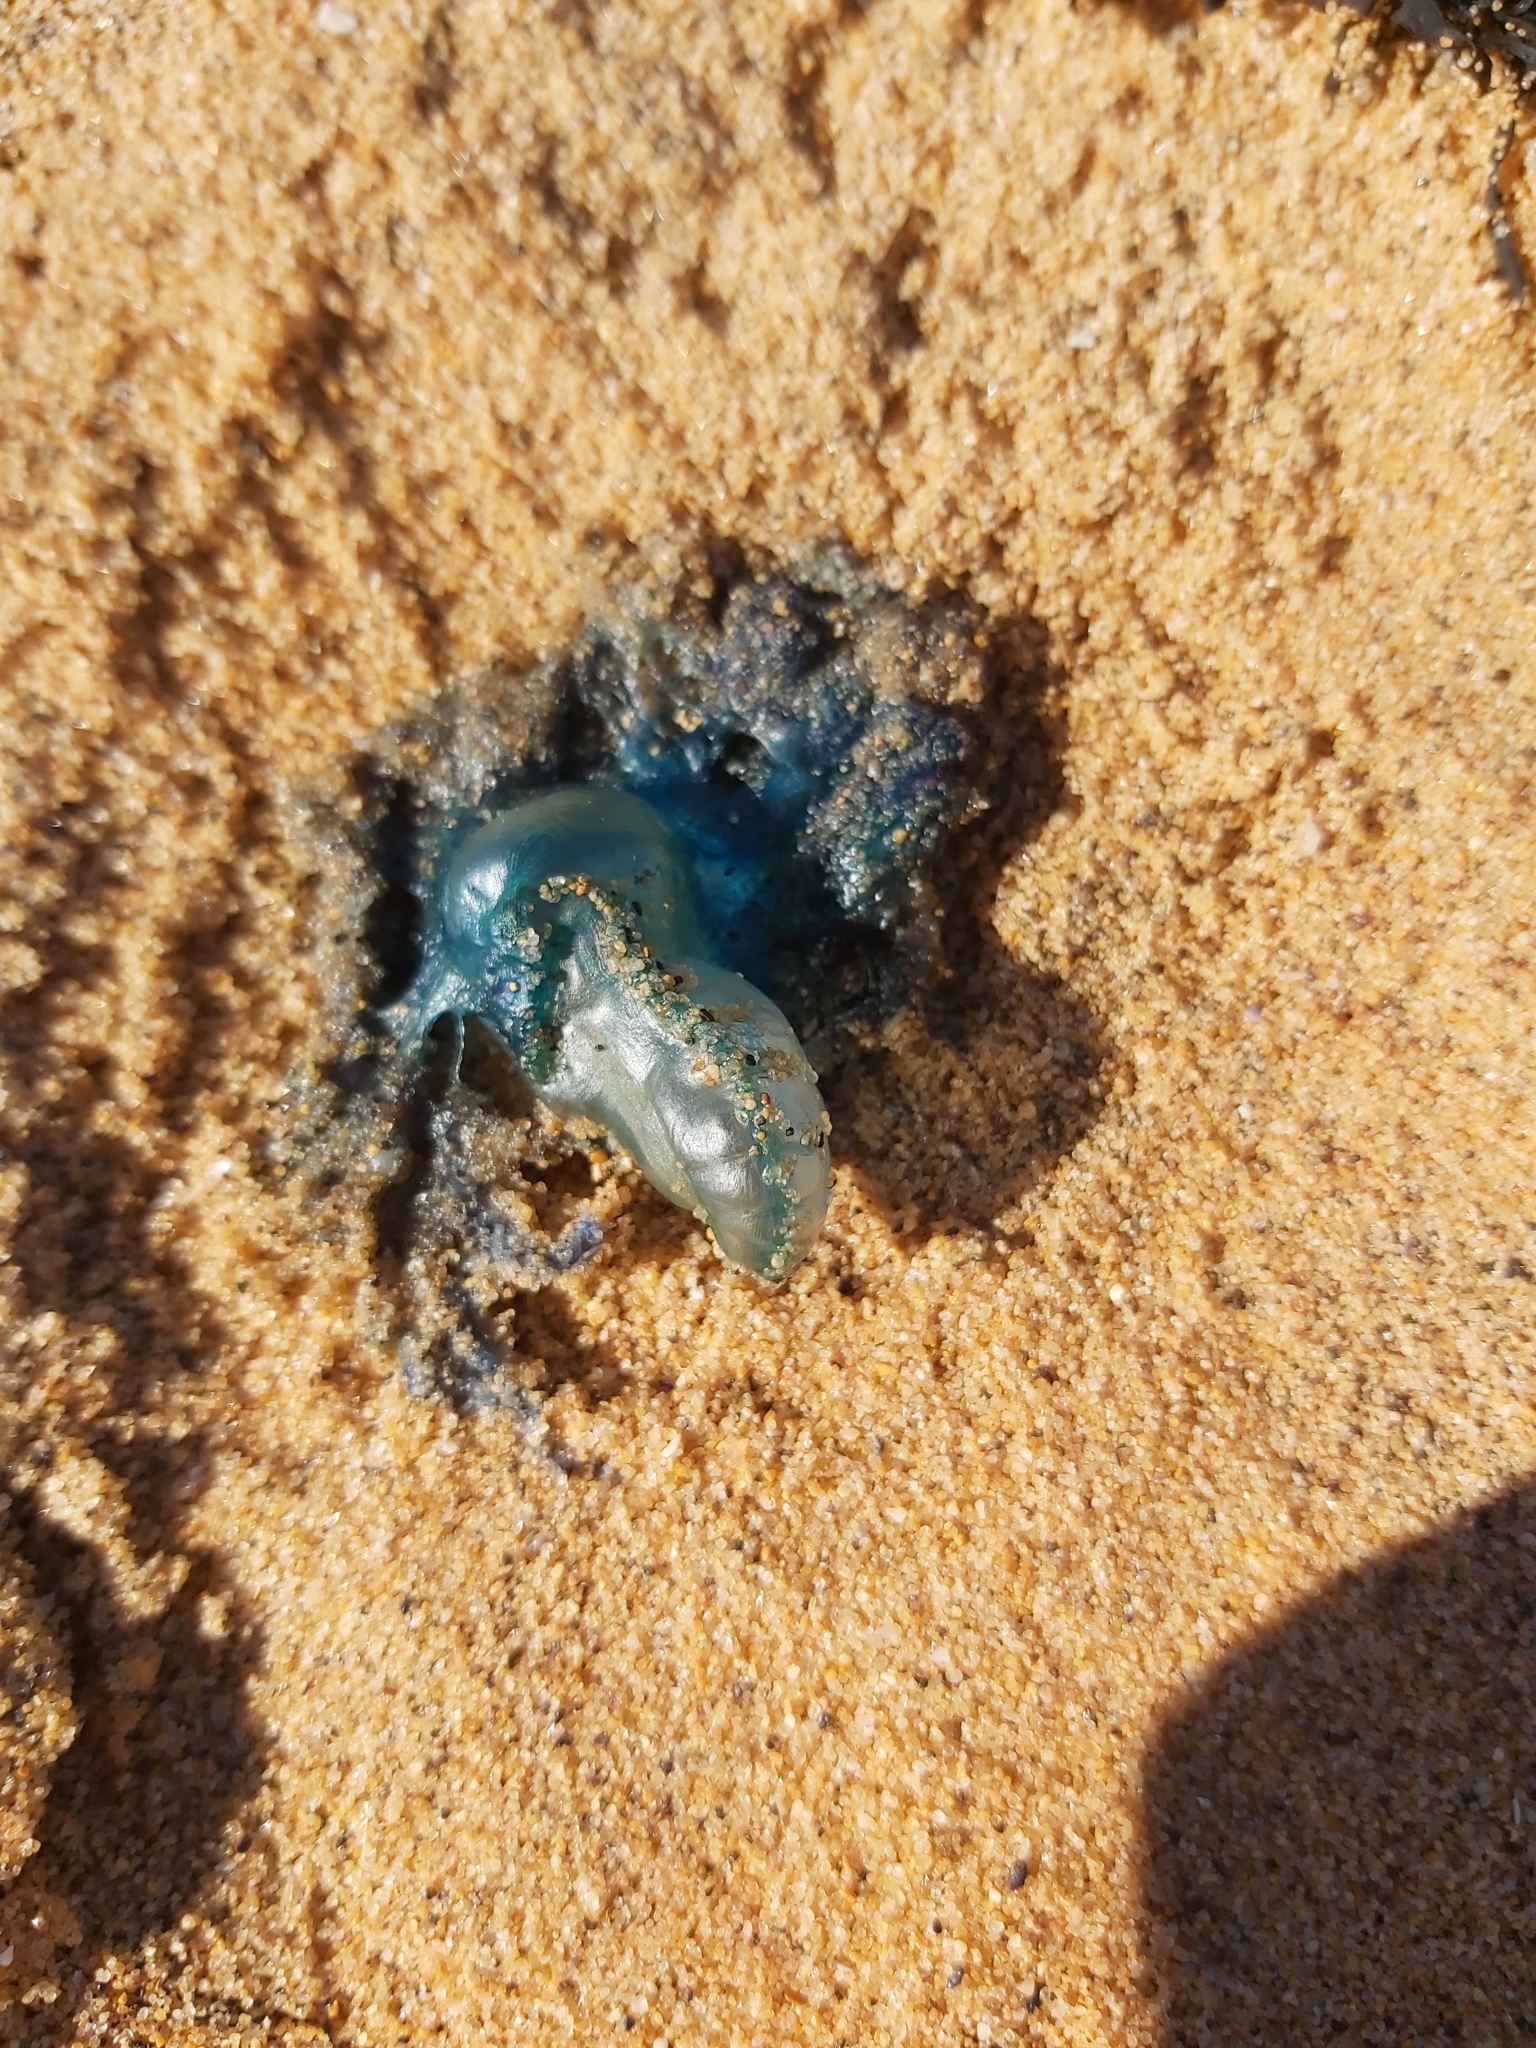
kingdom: Animalia
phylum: Cnidaria
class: Hydrozoa
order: Siphonophorae
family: Physaliidae
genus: Physalia
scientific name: Physalia physalis
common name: Portuguese man-of-war
